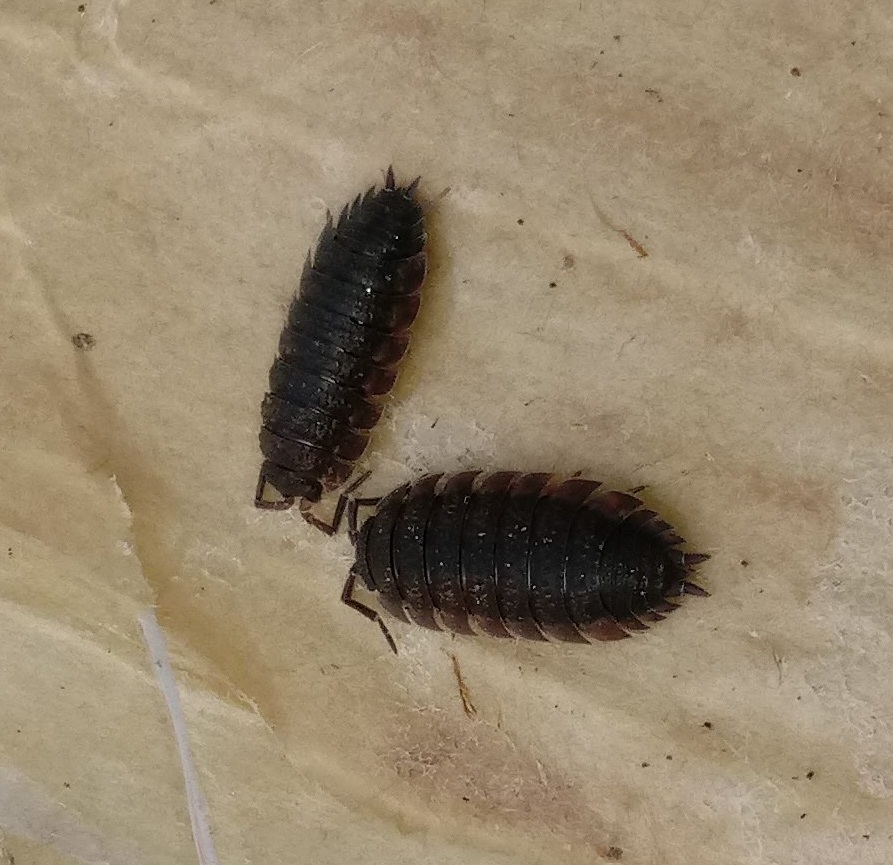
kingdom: Animalia
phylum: Arthropoda
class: Malacostraca
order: Isopoda
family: Porcellionidae
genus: Porcellio
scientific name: Porcellio scaber
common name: Common rough woodlouse
